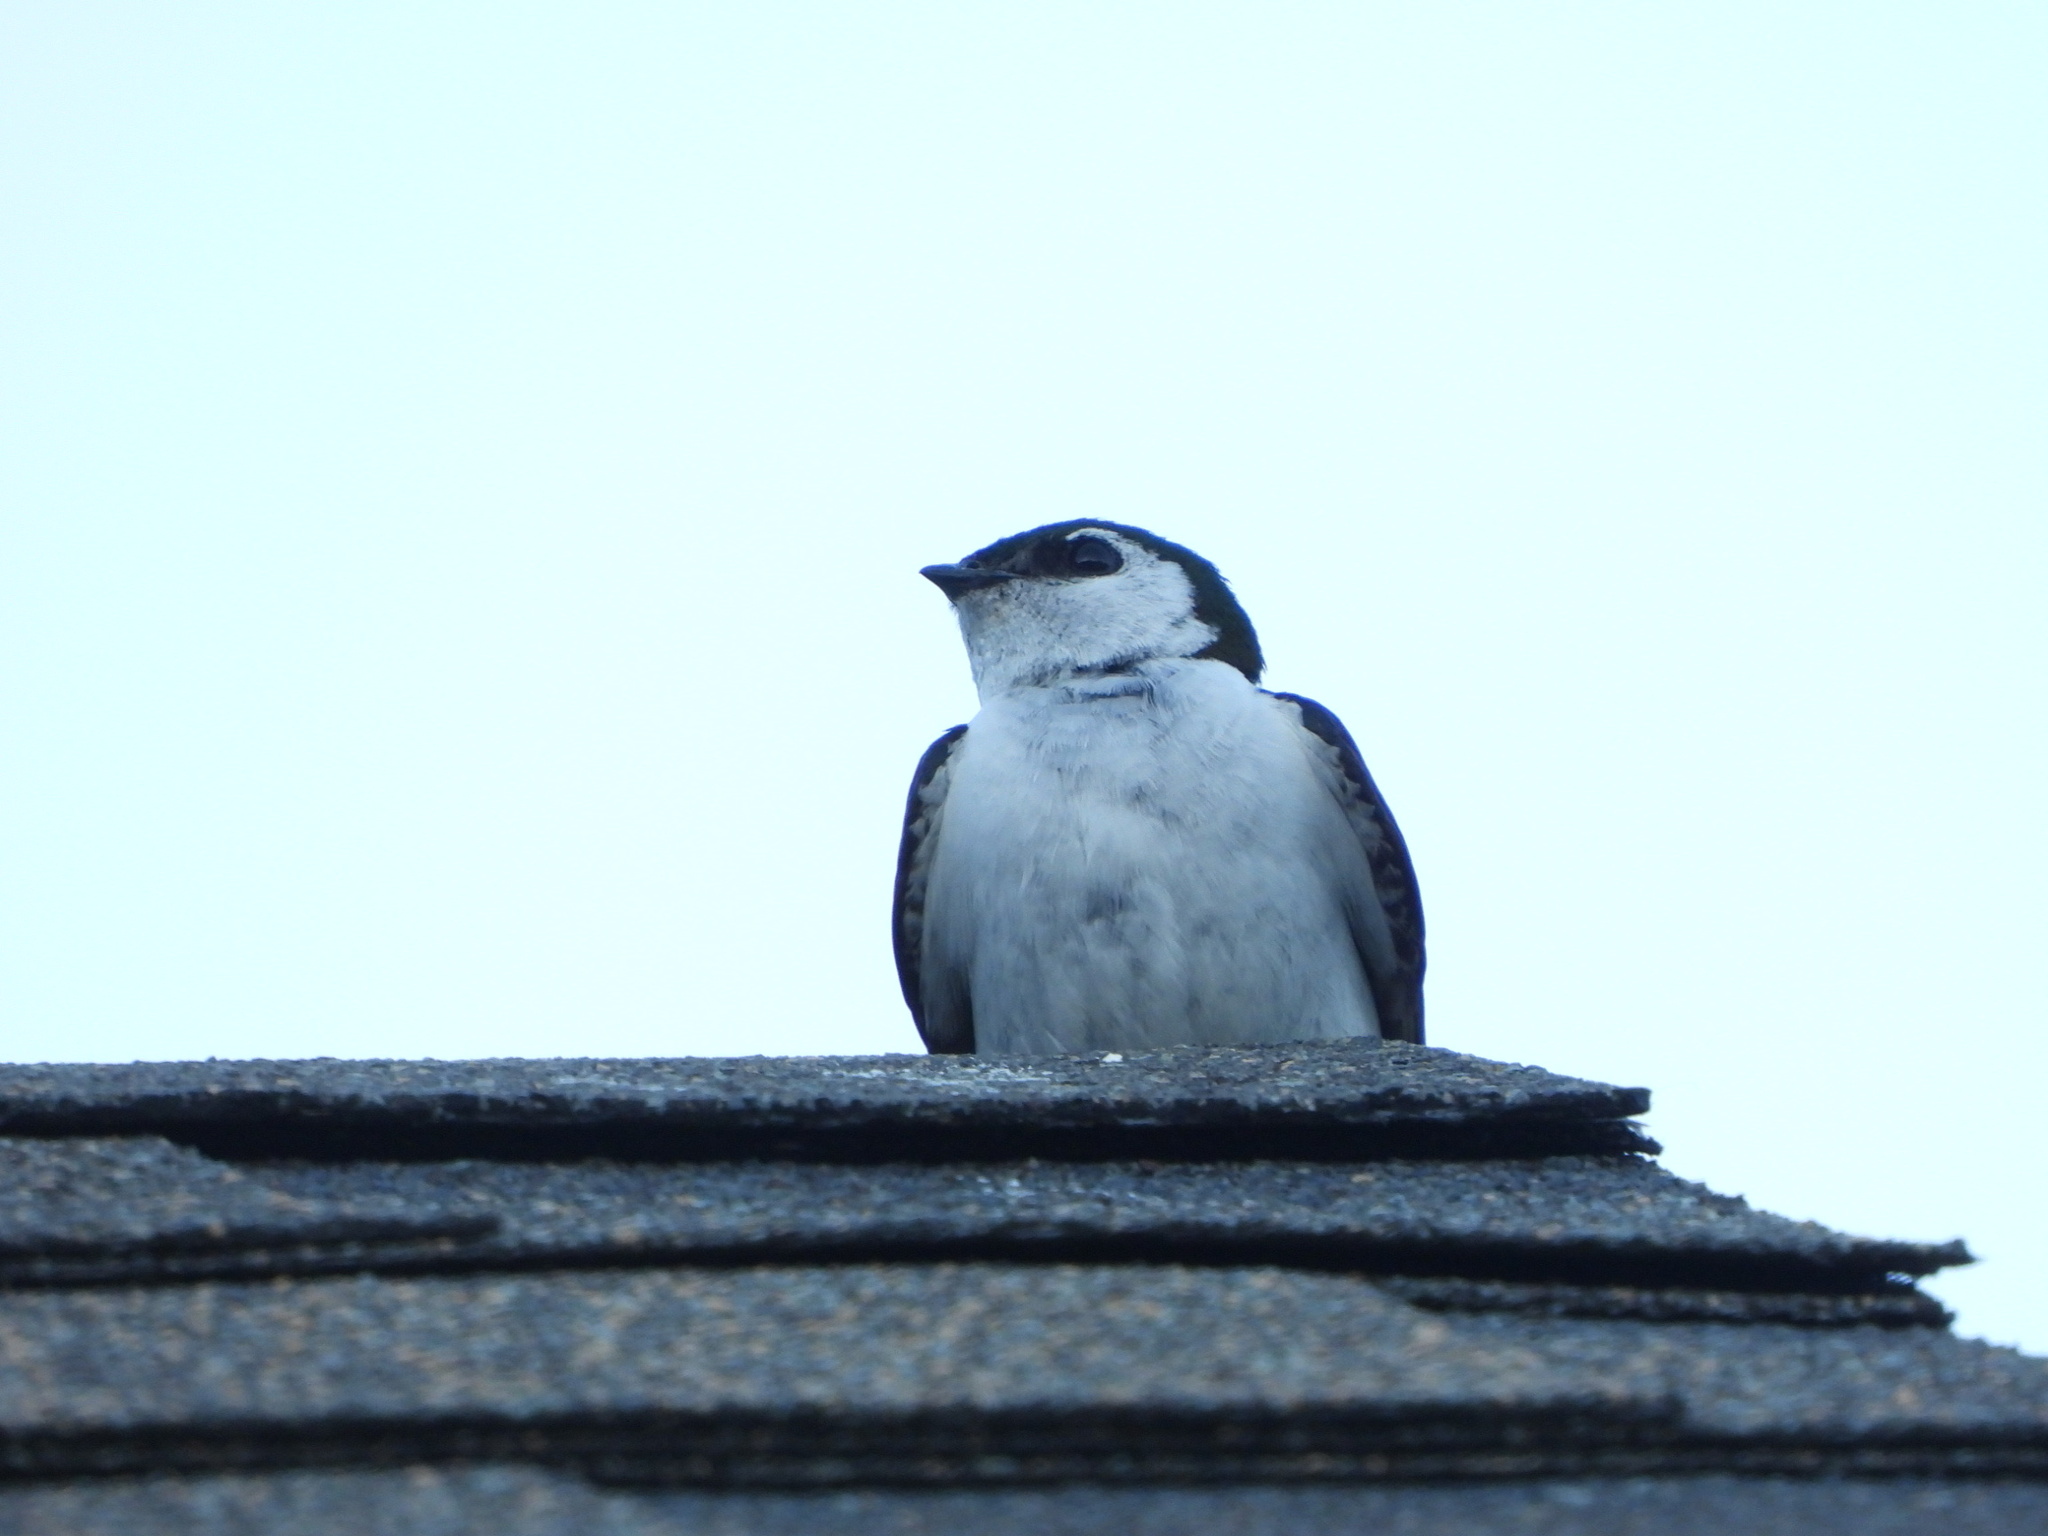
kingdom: Animalia
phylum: Chordata
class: Aves
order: Passeriformes
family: Hirundinidae
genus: Tachycineta
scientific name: Tachycineta thalassina
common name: Violet-green swallow
